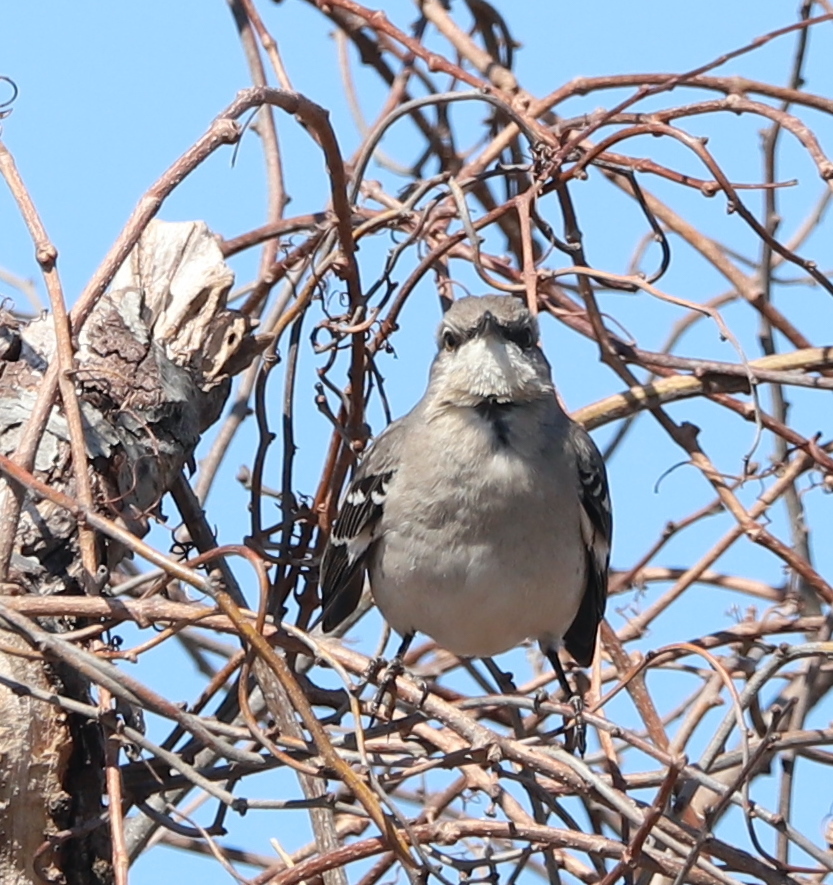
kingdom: Animalia
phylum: Chordata
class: Aves
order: Passeriformes
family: Mimidae
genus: Mimus
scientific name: Mimus polyglottos
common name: Northern mockingbird
